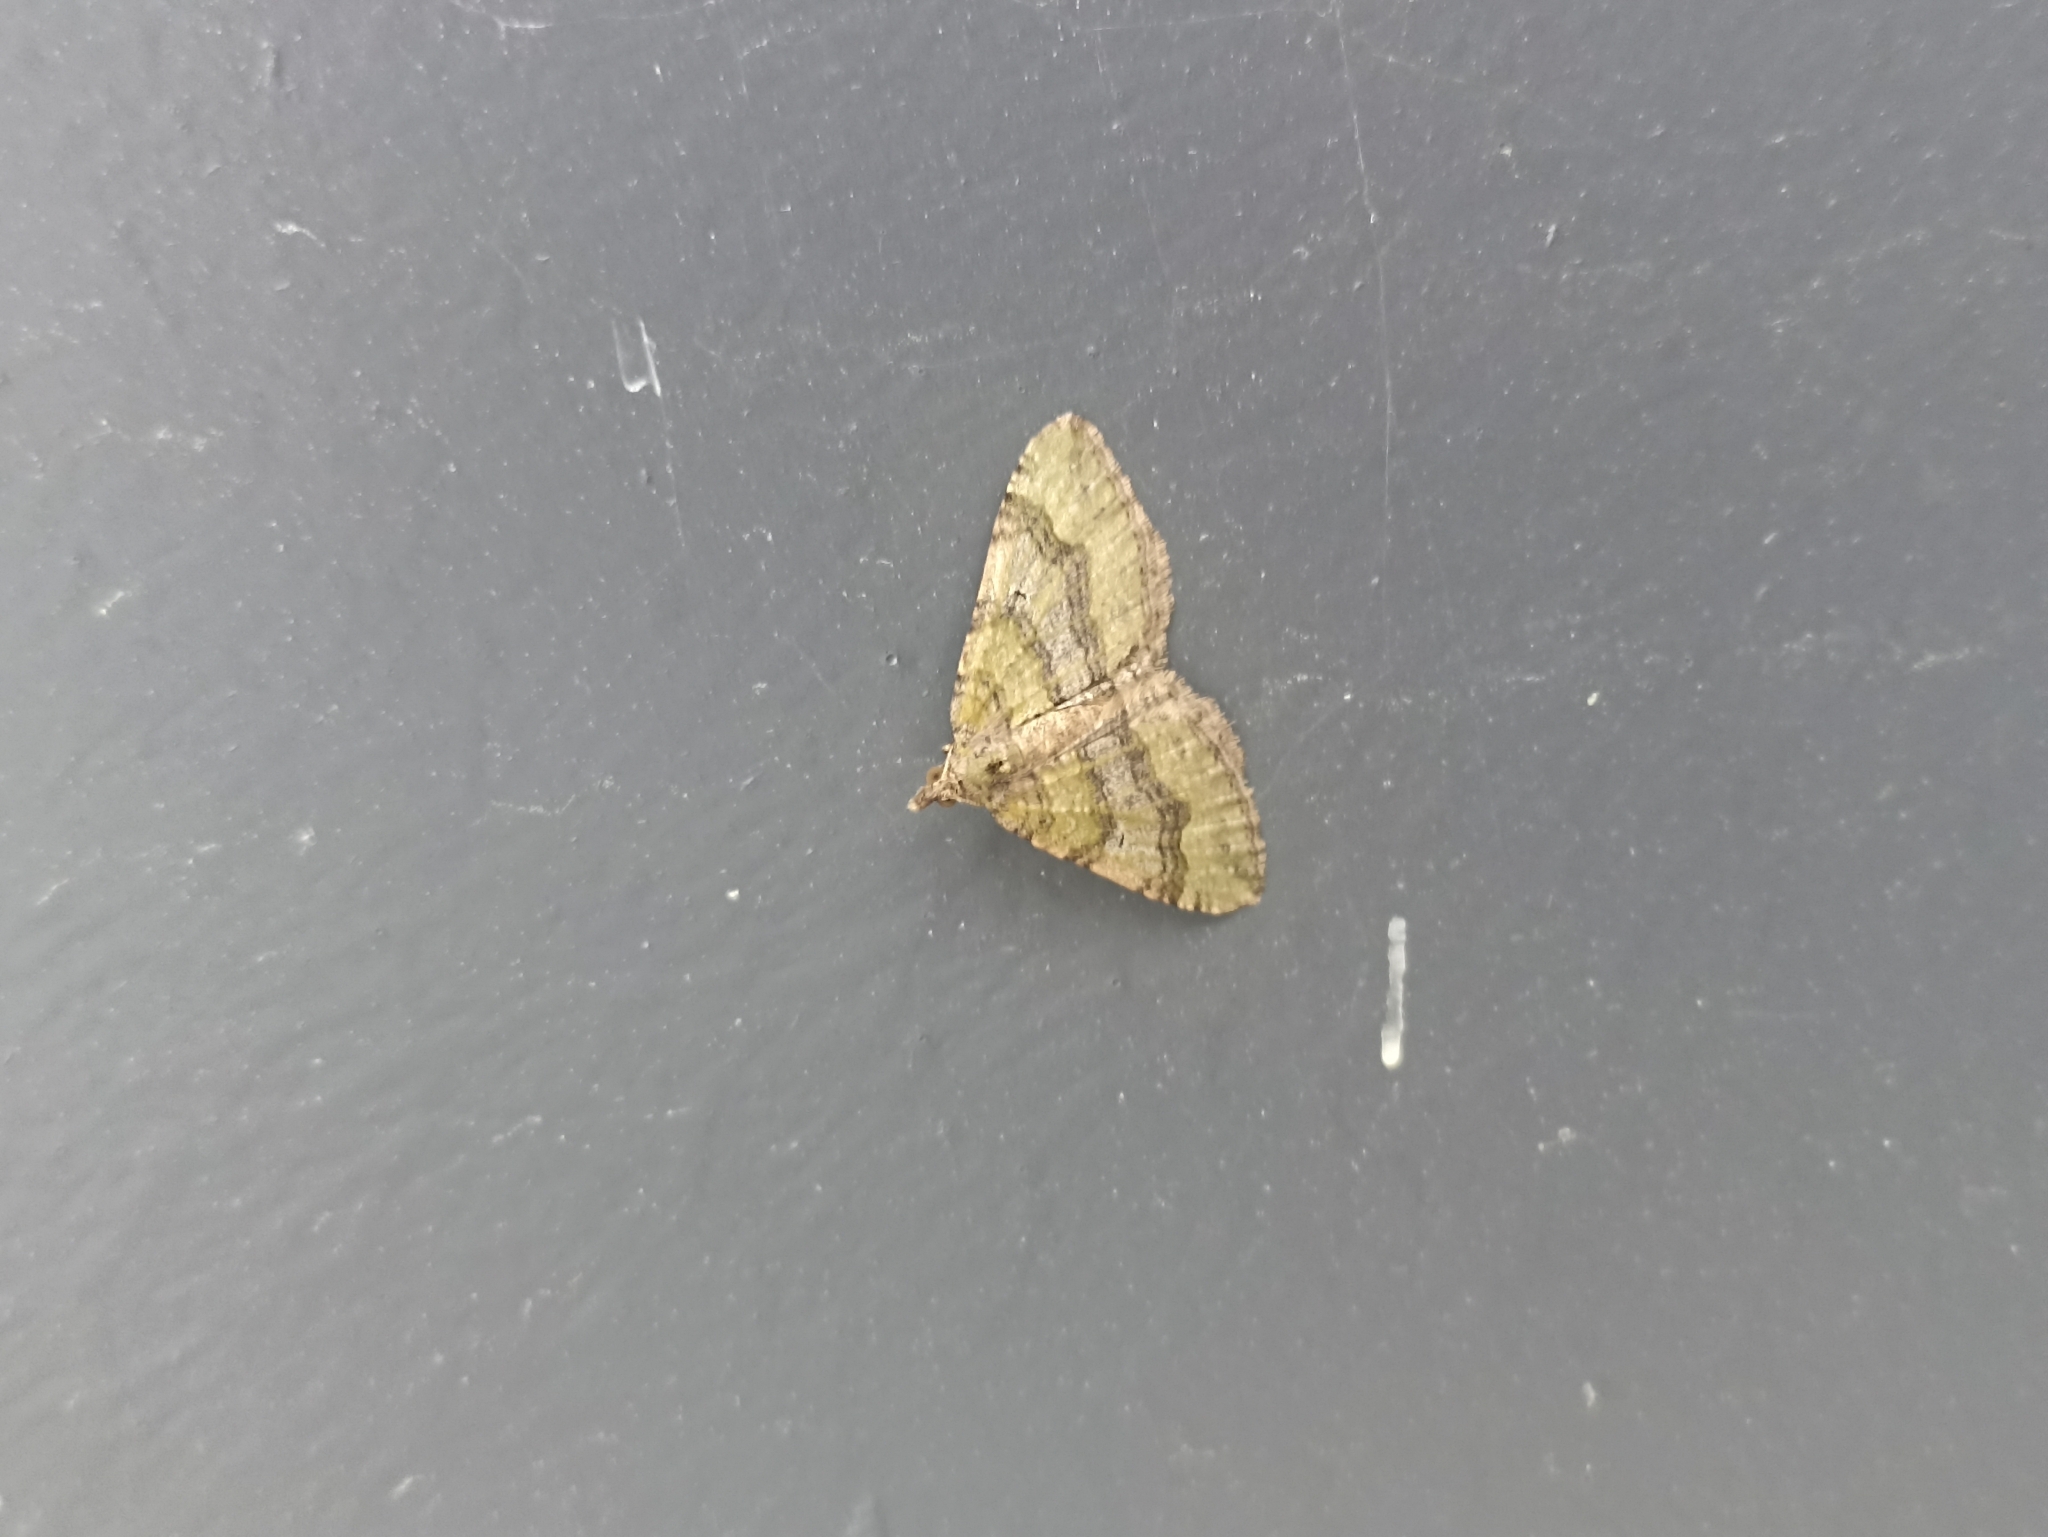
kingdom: Animalia
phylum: Arthropoda
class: Insecta
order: Lepidoptera
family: Geometridae
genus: Epyaxa
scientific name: Epyaxa rosearia
